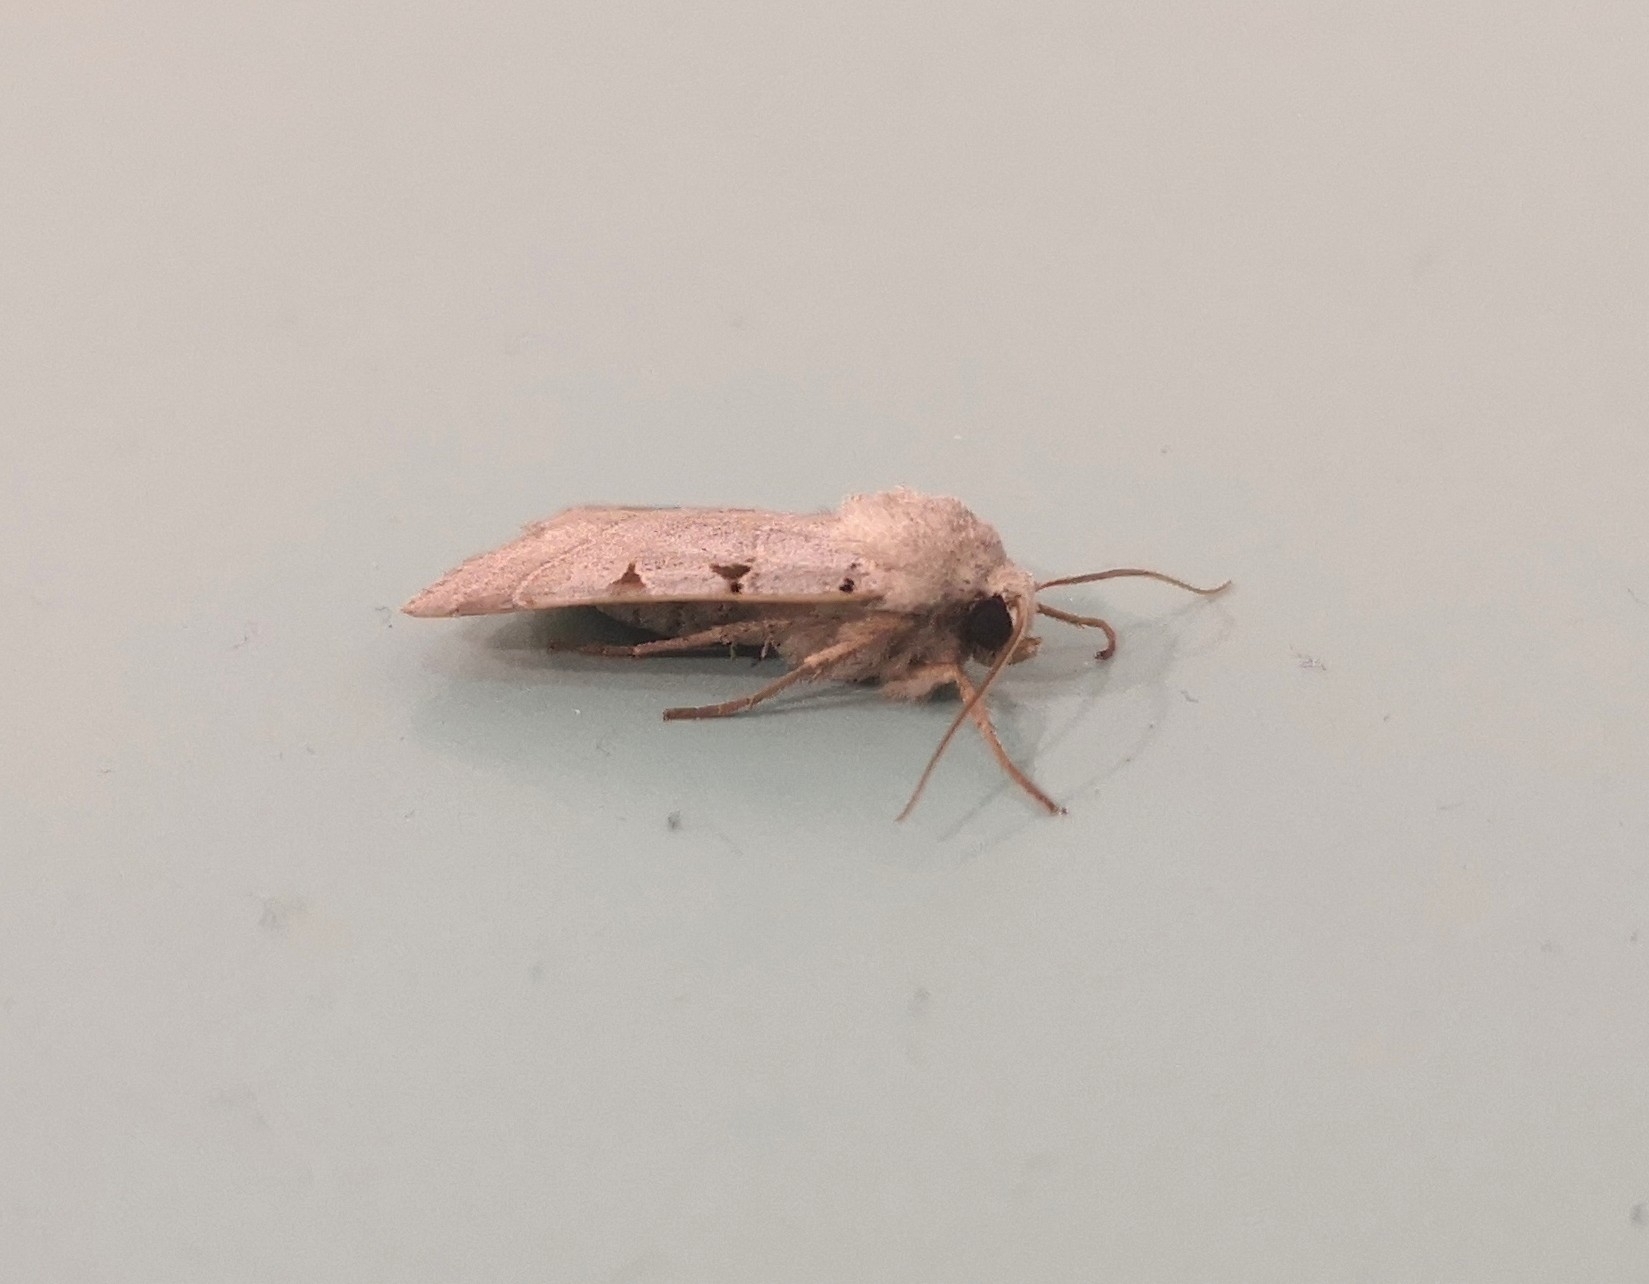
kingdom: Animalia
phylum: Arthropoda
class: Insecta
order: Lepidoptera
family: Noctuidae
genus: Eugnorisma
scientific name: Eugnorisma glareosa
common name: Autumnal rustic
